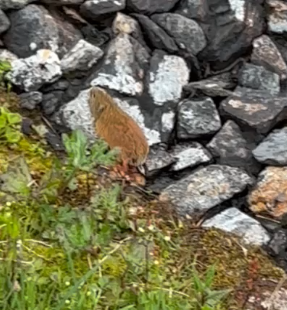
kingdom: Animalia
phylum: Chordata
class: Mammalia
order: Rodentia
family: Cricetidae
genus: Lemmus
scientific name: Lemmus trimucronatus
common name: Brown lemming
